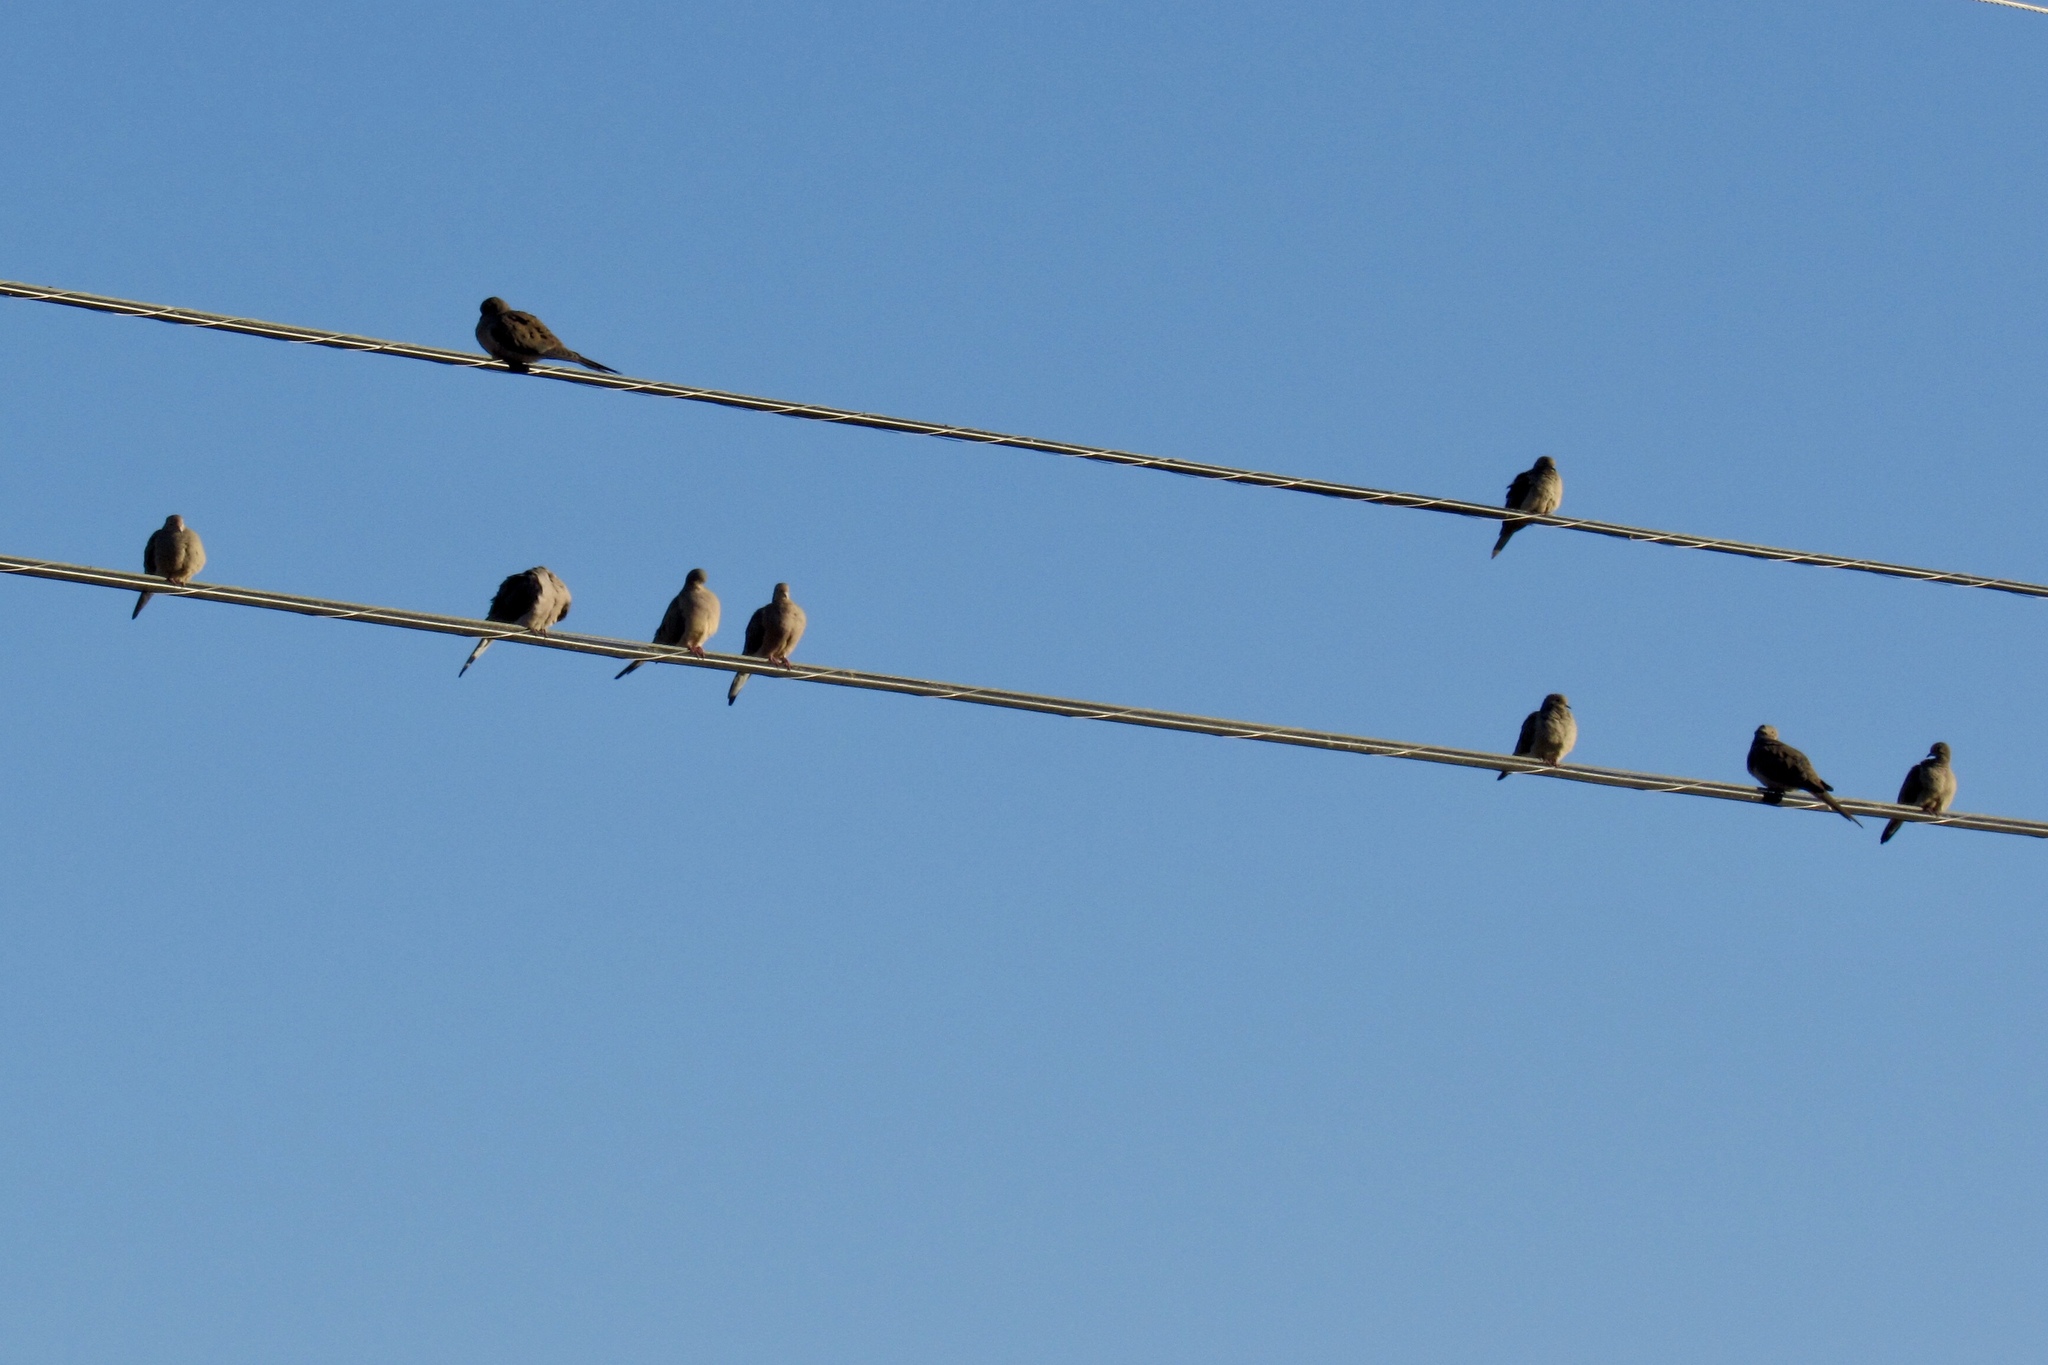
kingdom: Animalia
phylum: Chordata
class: Aves
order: Columbiformes
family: Columbidae
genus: Zenaida
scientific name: Zenaida macroura
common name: Mourning dove
